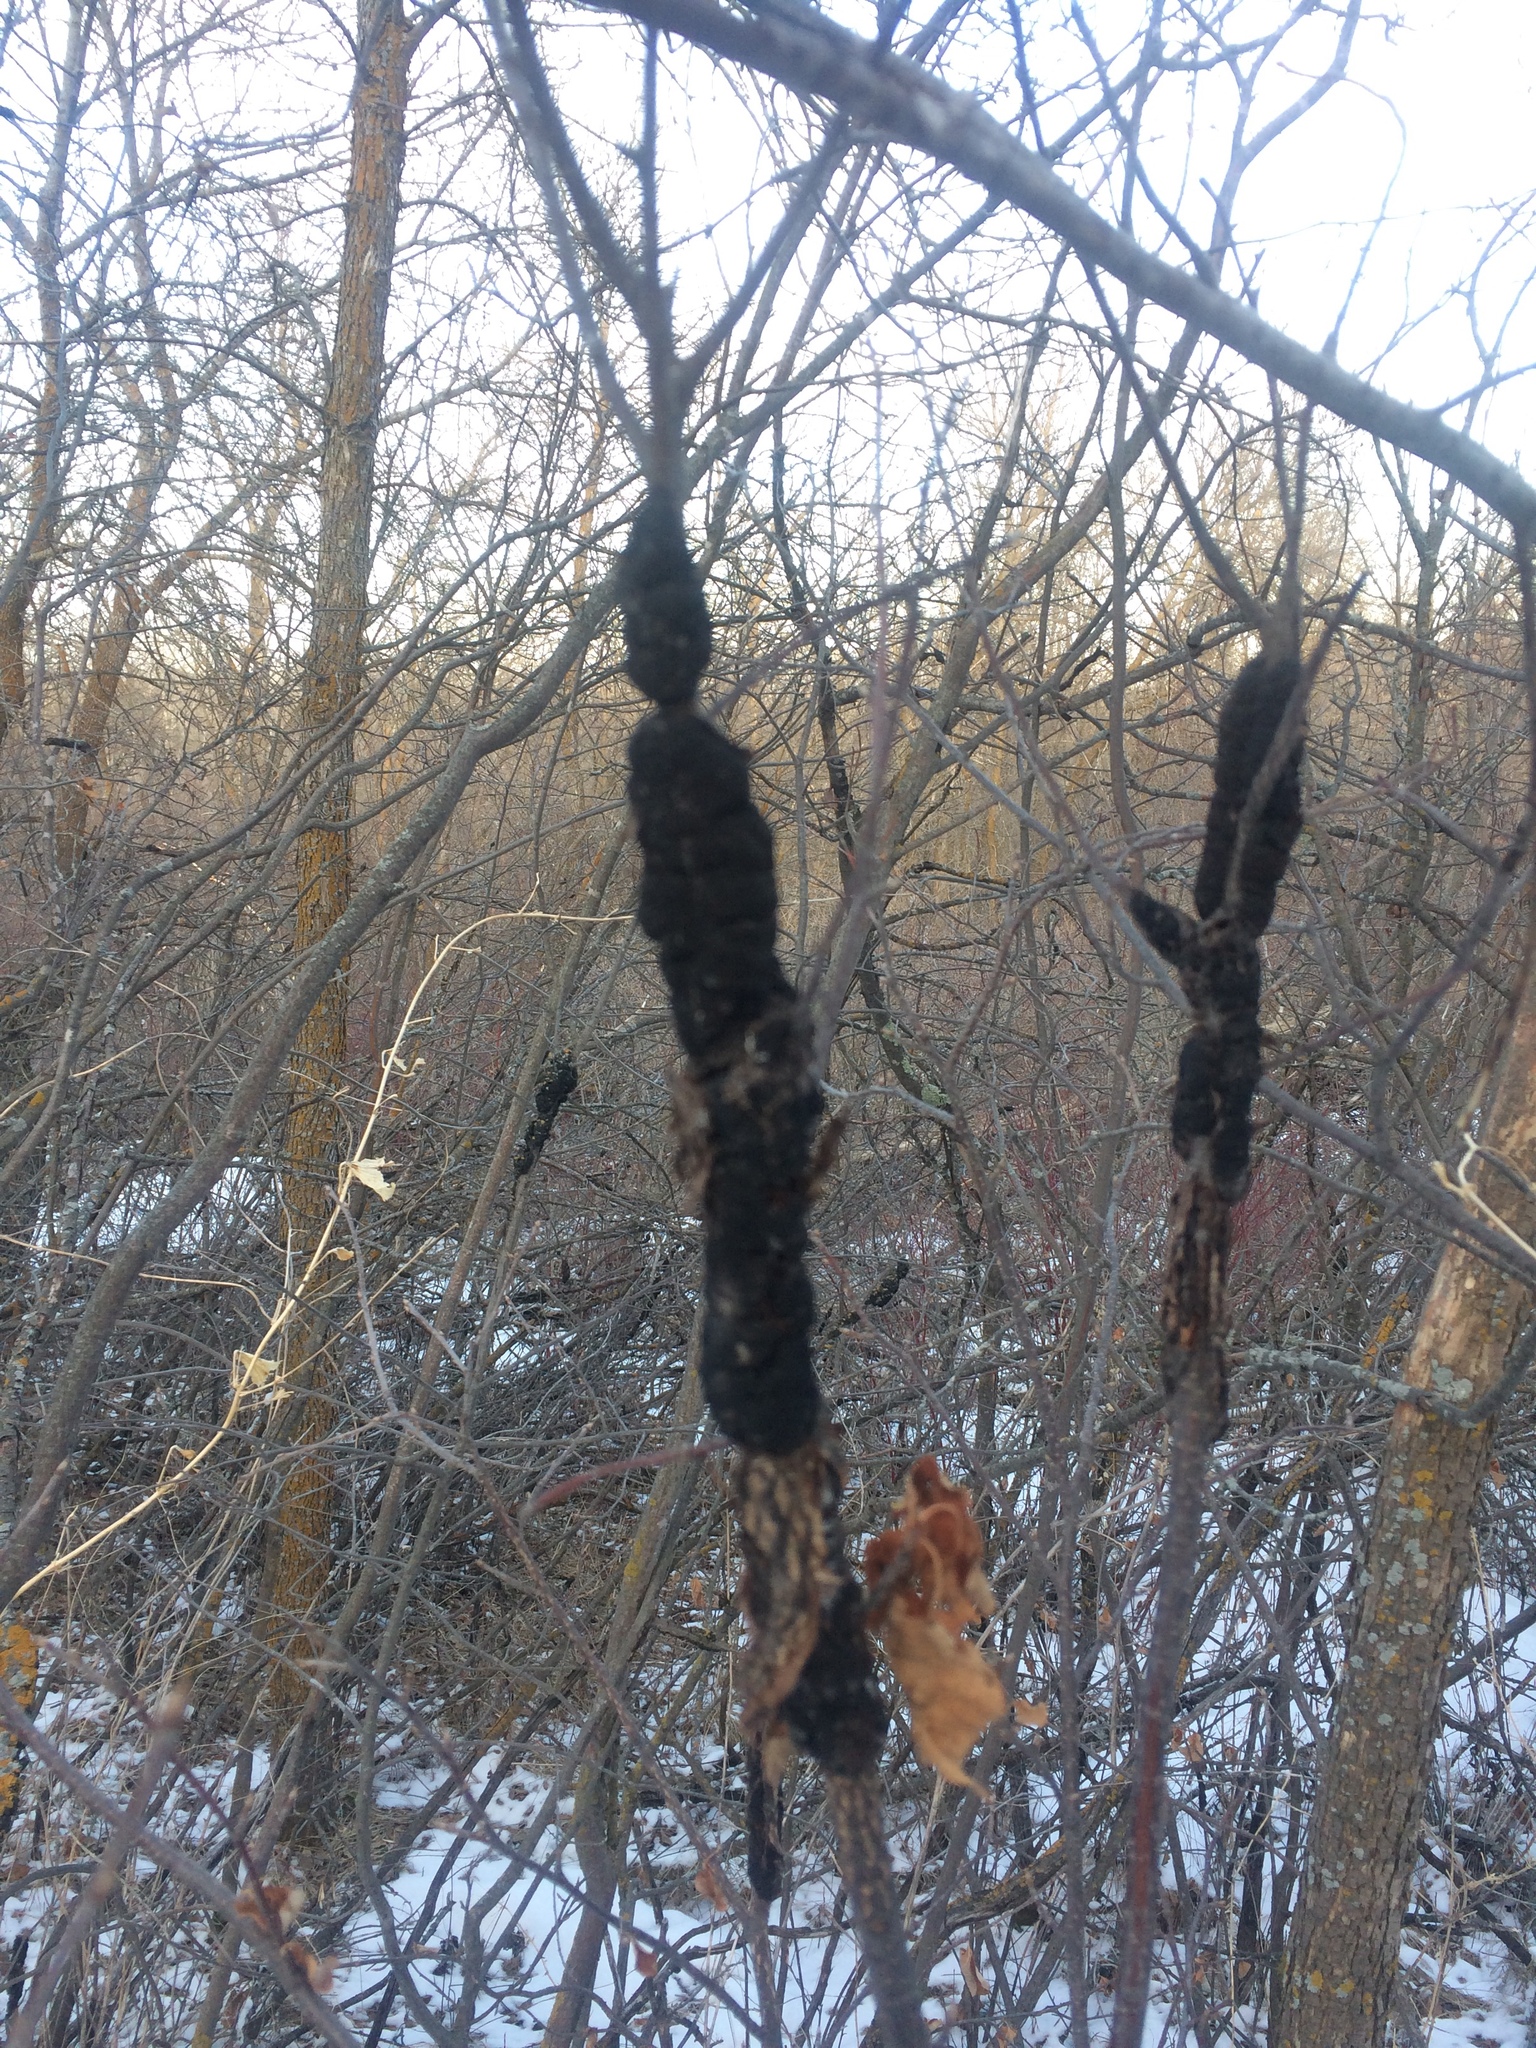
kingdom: Fungi
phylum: Ascomycota
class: Dothideomycetes
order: Venturiales
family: Venturiaceae
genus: Apiosporina
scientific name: Apiosporina morbosa
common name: Black knot
